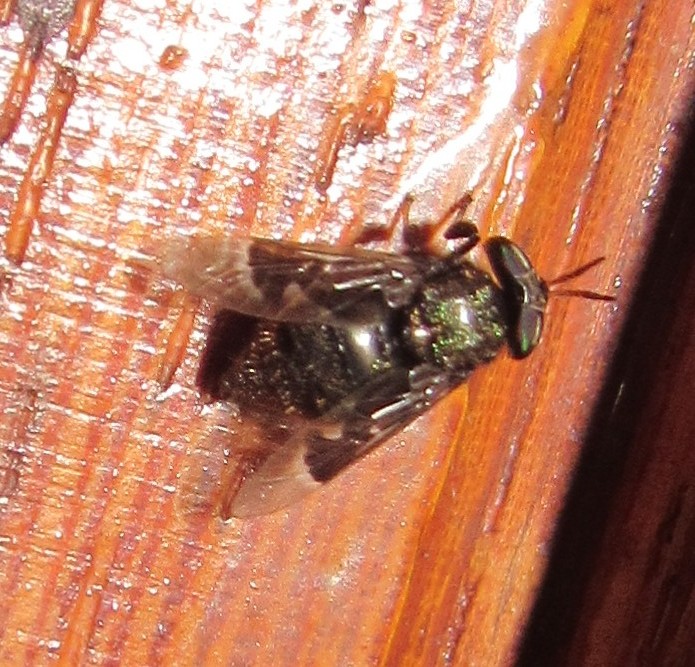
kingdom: Animalia
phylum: Arthropoda
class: Insecta
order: Diptera
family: Tabanidae
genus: Lepiselaga
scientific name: Lepiselaga albitarsis
